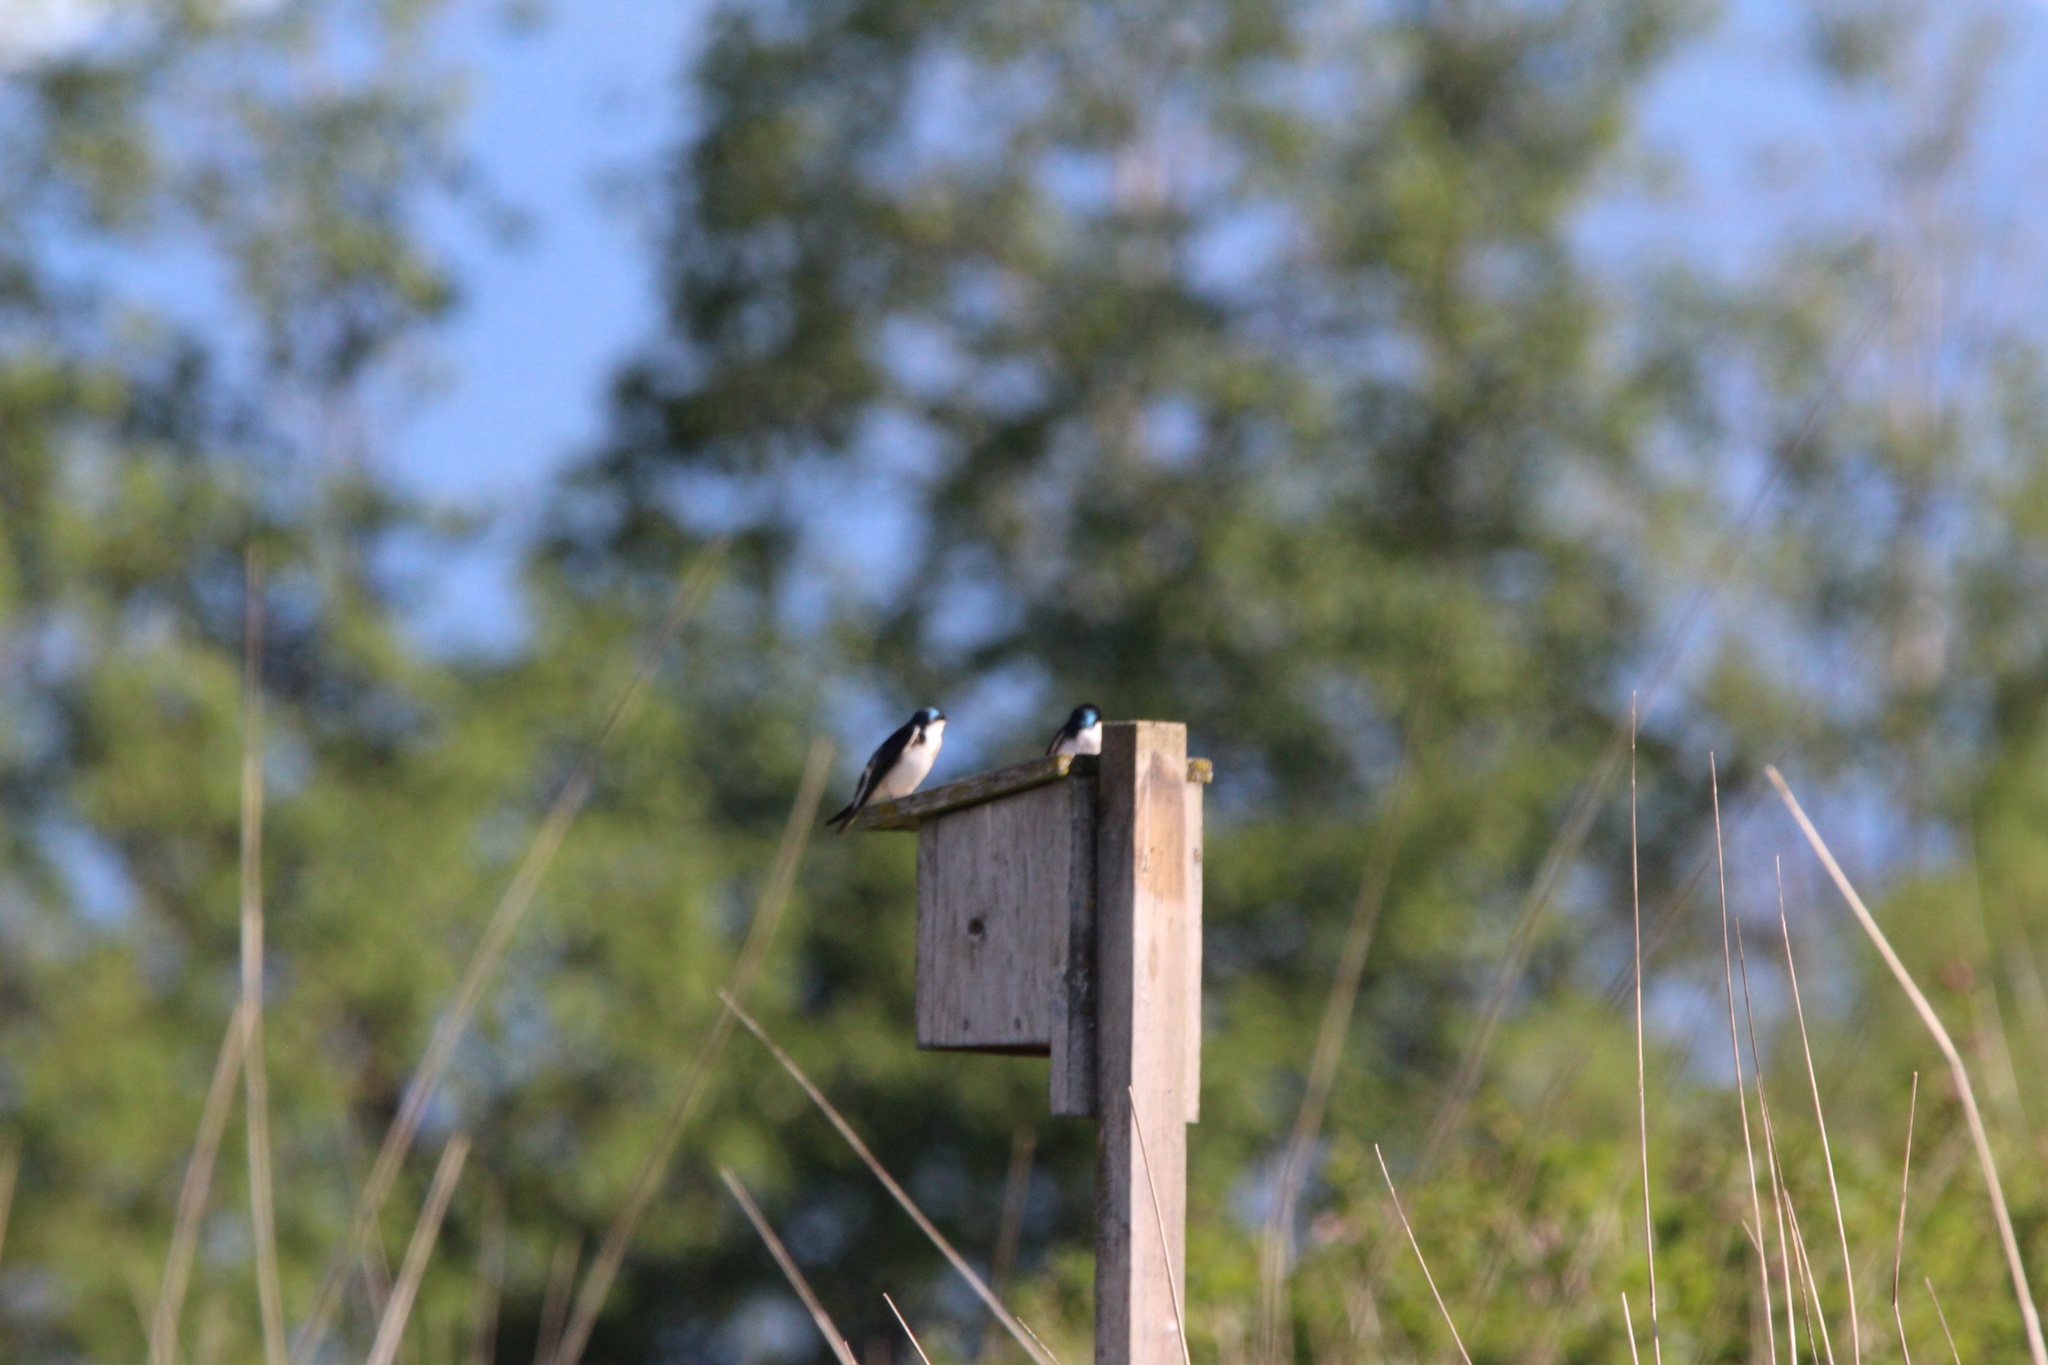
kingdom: Animalia
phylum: Chordata
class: Aves
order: Passeriformes
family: Hirundinidae
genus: Tachycineta
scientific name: Tachycineta bicolor
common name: Tree swallow
